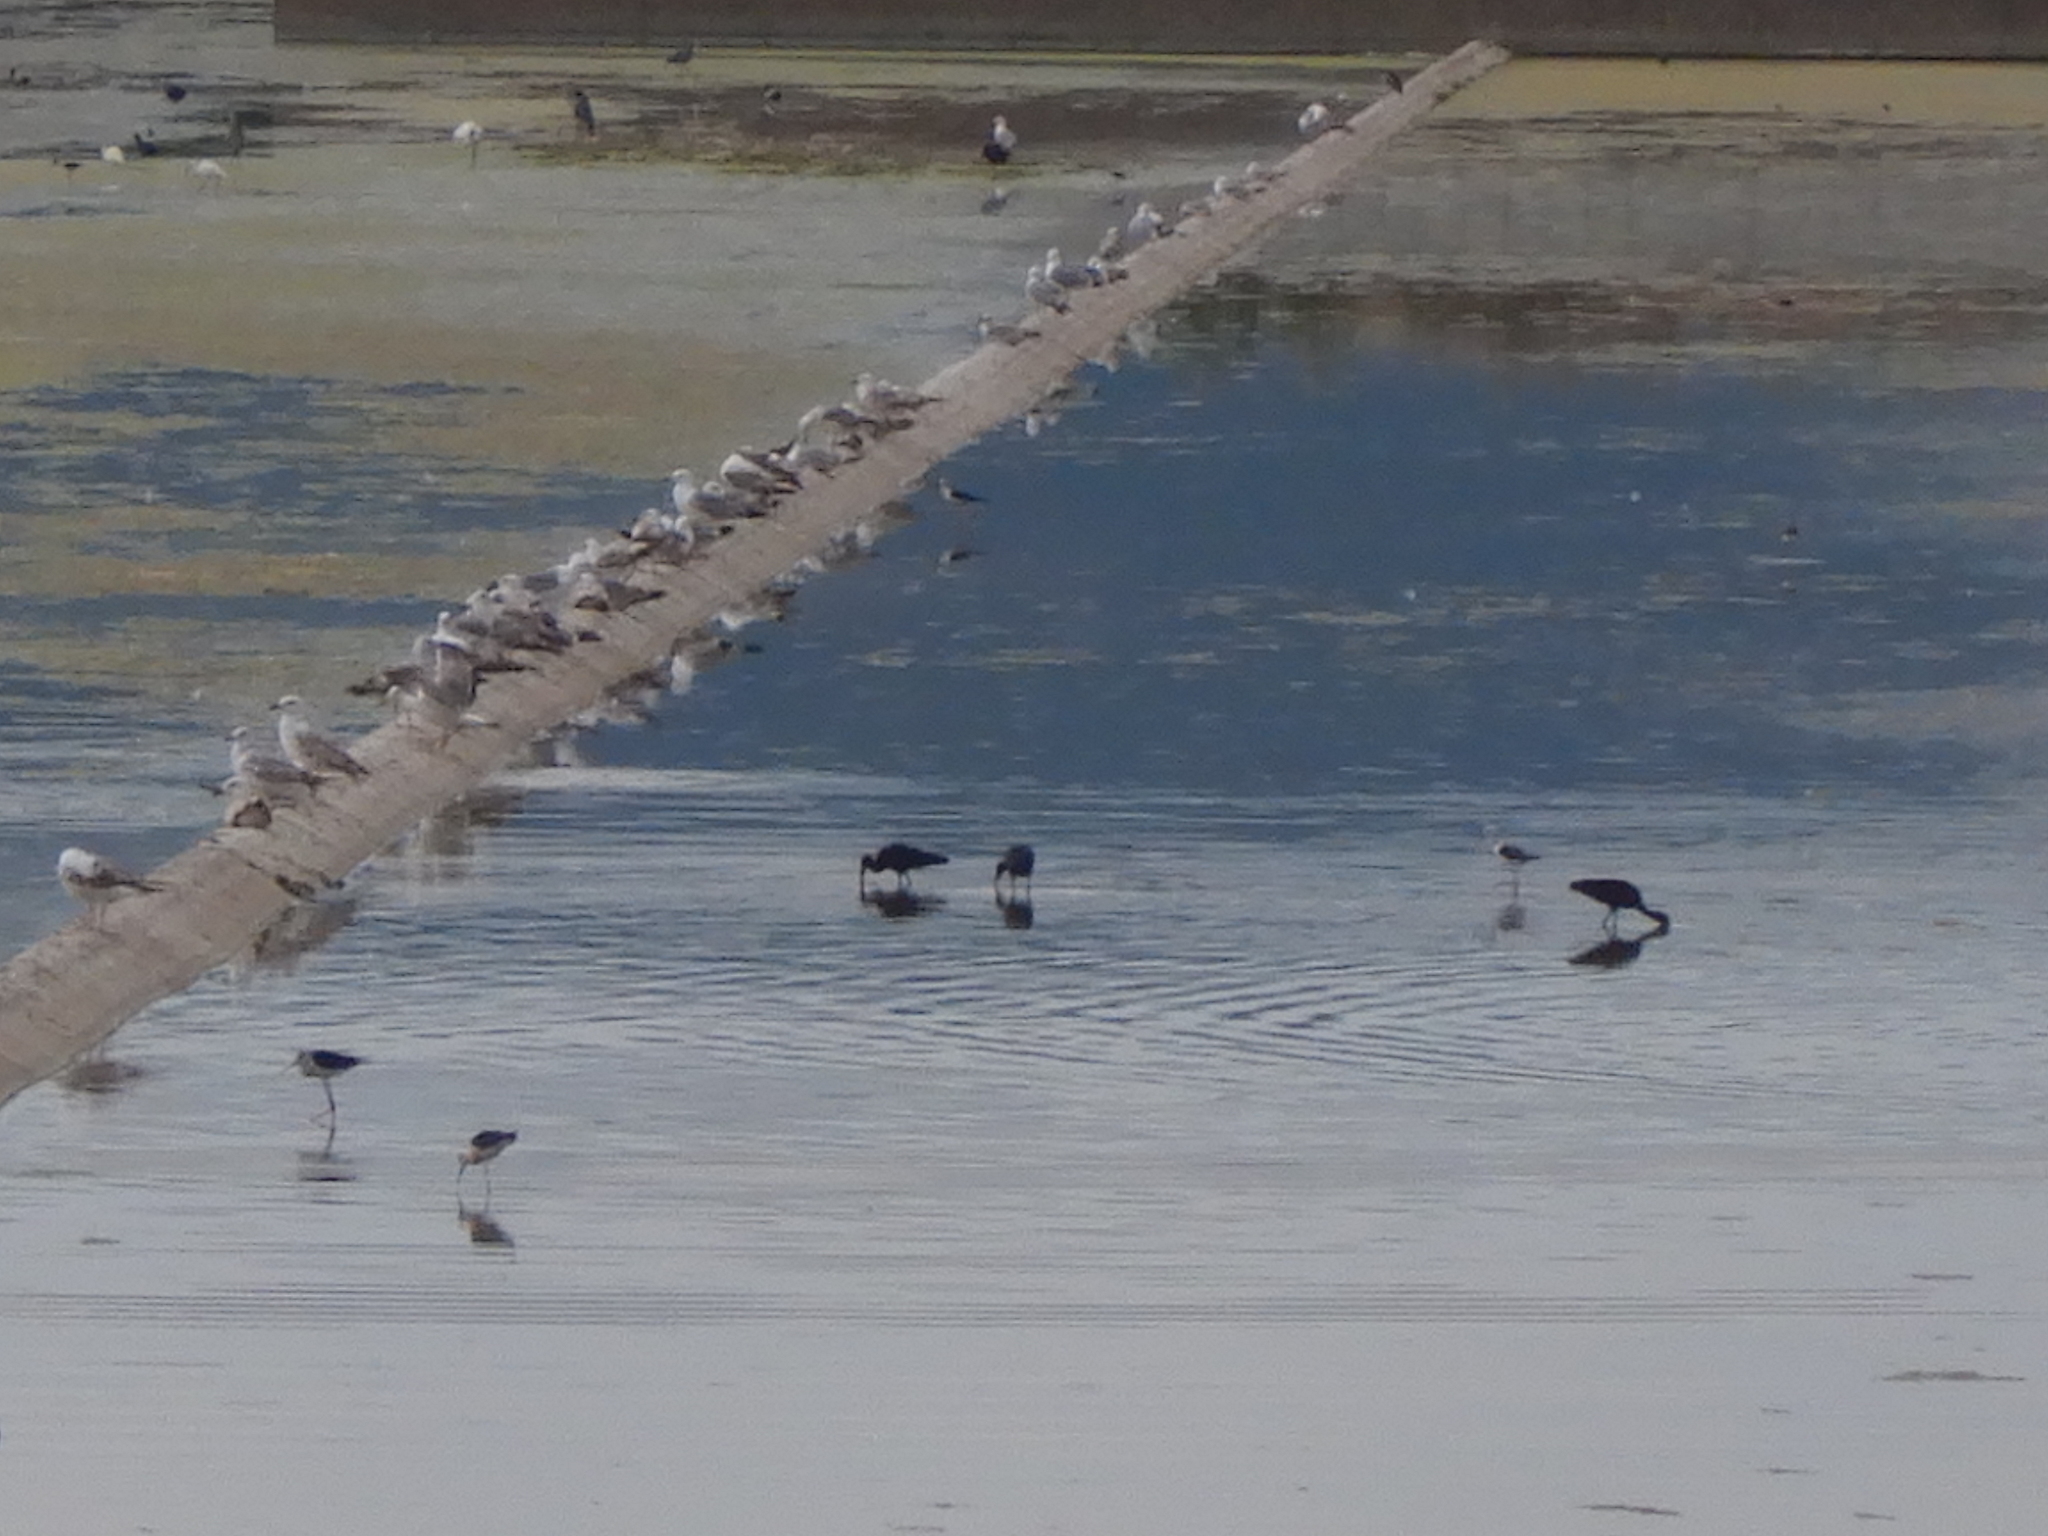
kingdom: Animalia
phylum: Chordata
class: Aves
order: Pelecaniformes
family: Threskiornithidae
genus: Plegadis
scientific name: Plegadis falcinellus
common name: Glossy ibis
